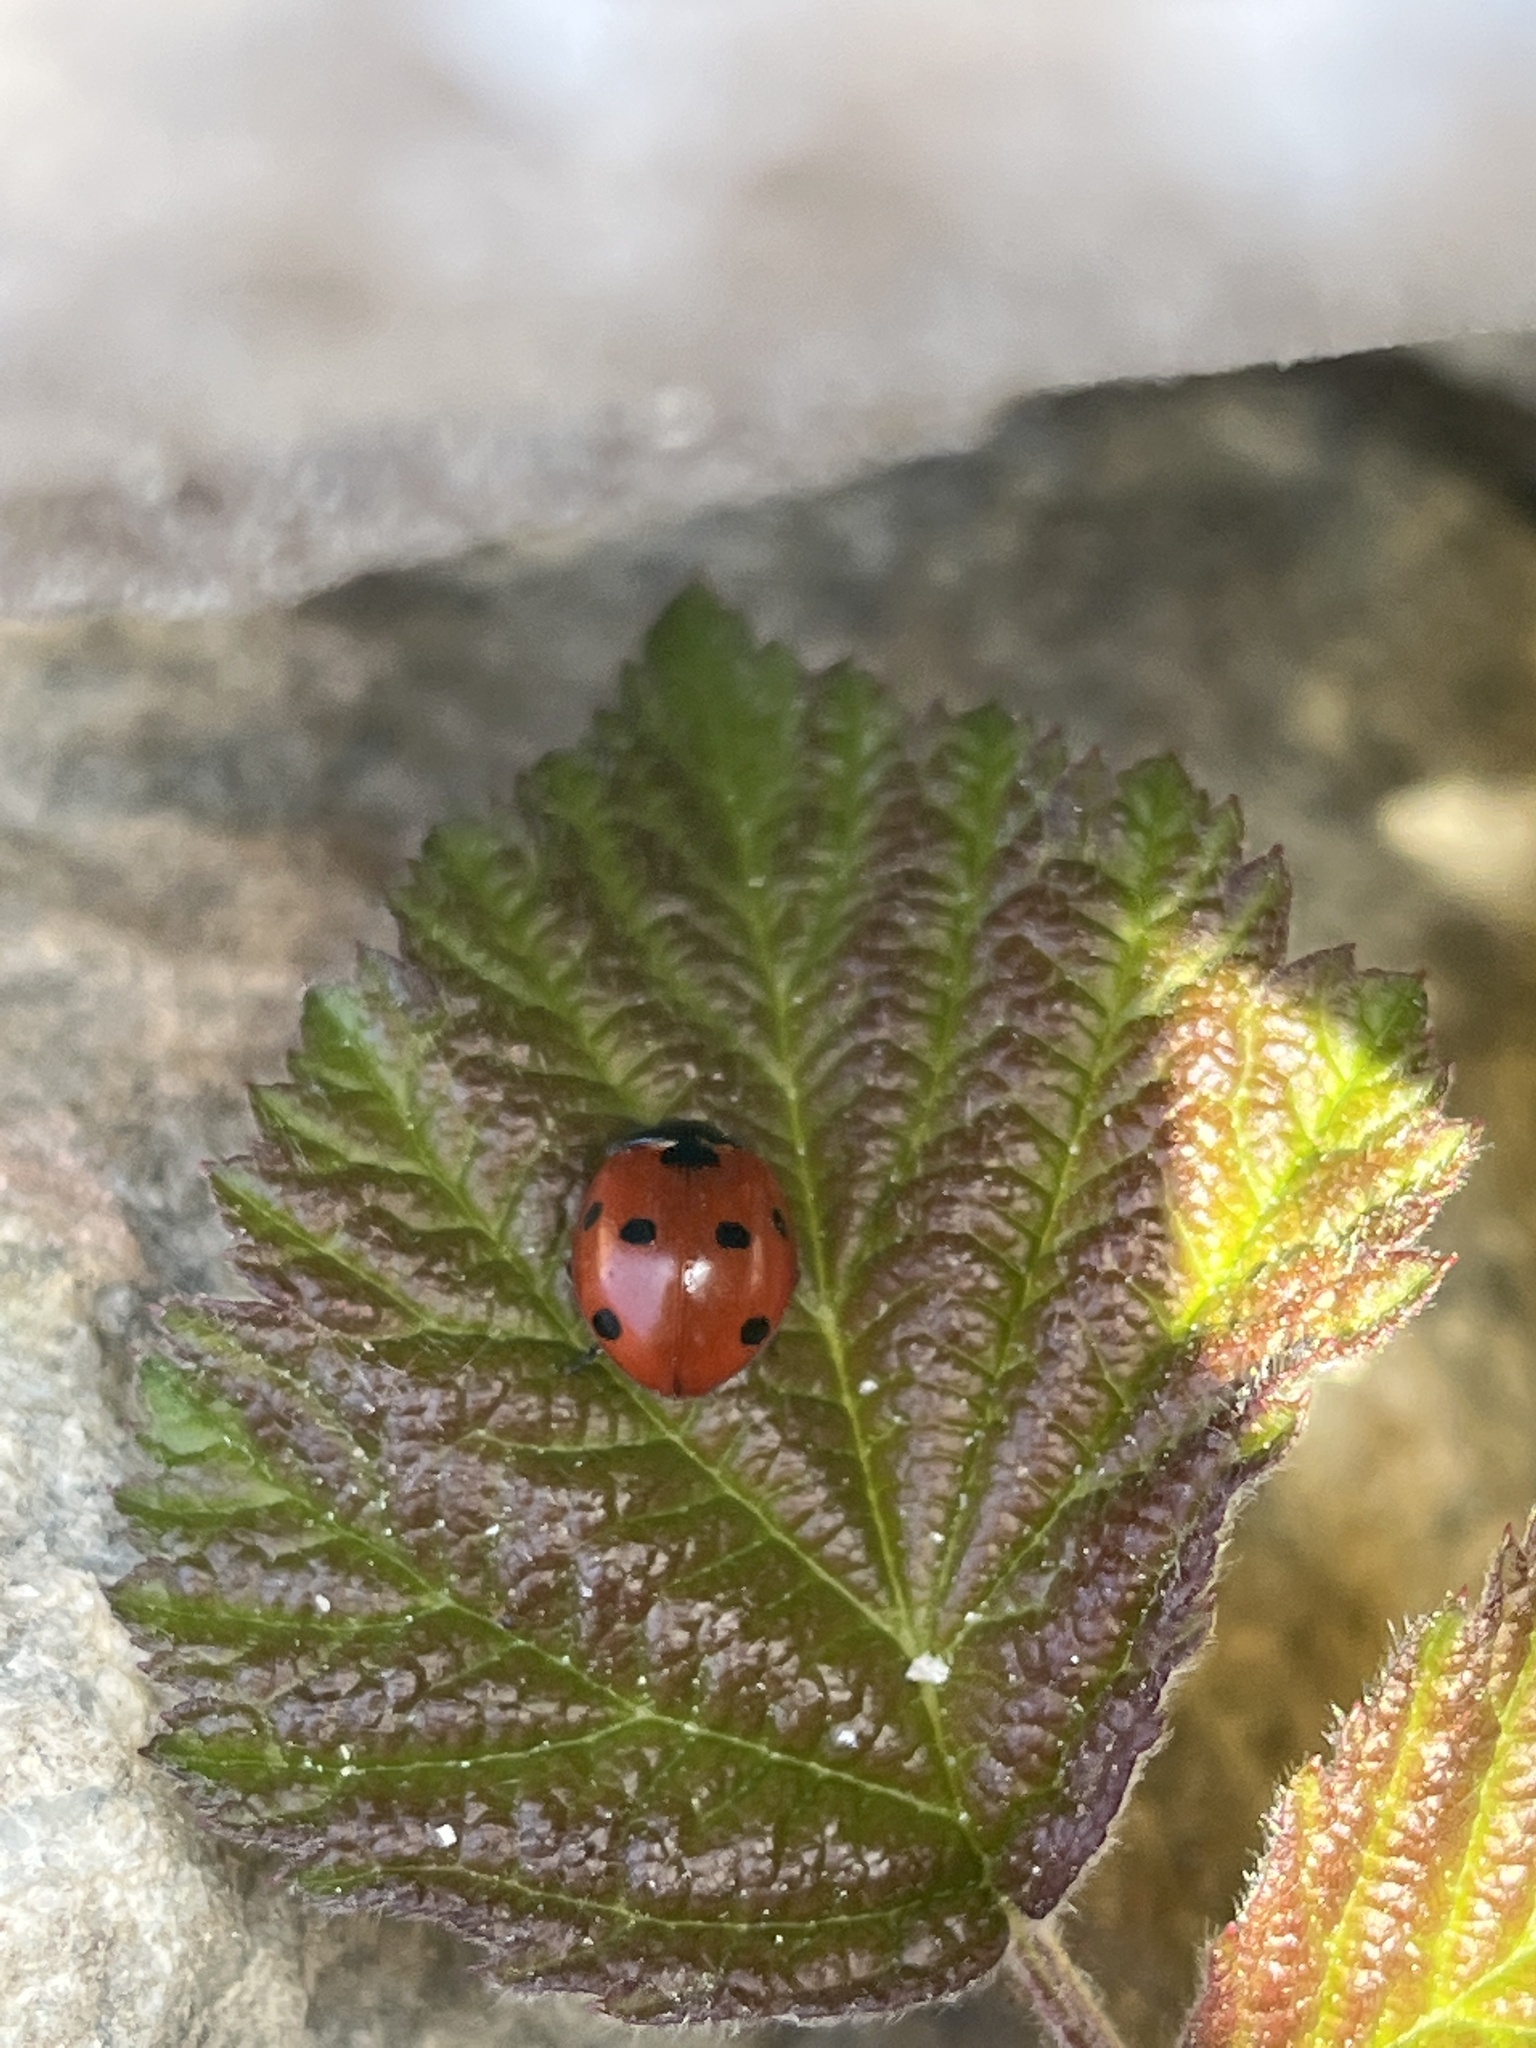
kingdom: Animalia
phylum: Arthropoda
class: Insecta
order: Coleoptera
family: Coccinellidae
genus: Coccinella
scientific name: Coccinella septempunctata
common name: Sevenspotted lady beetle
